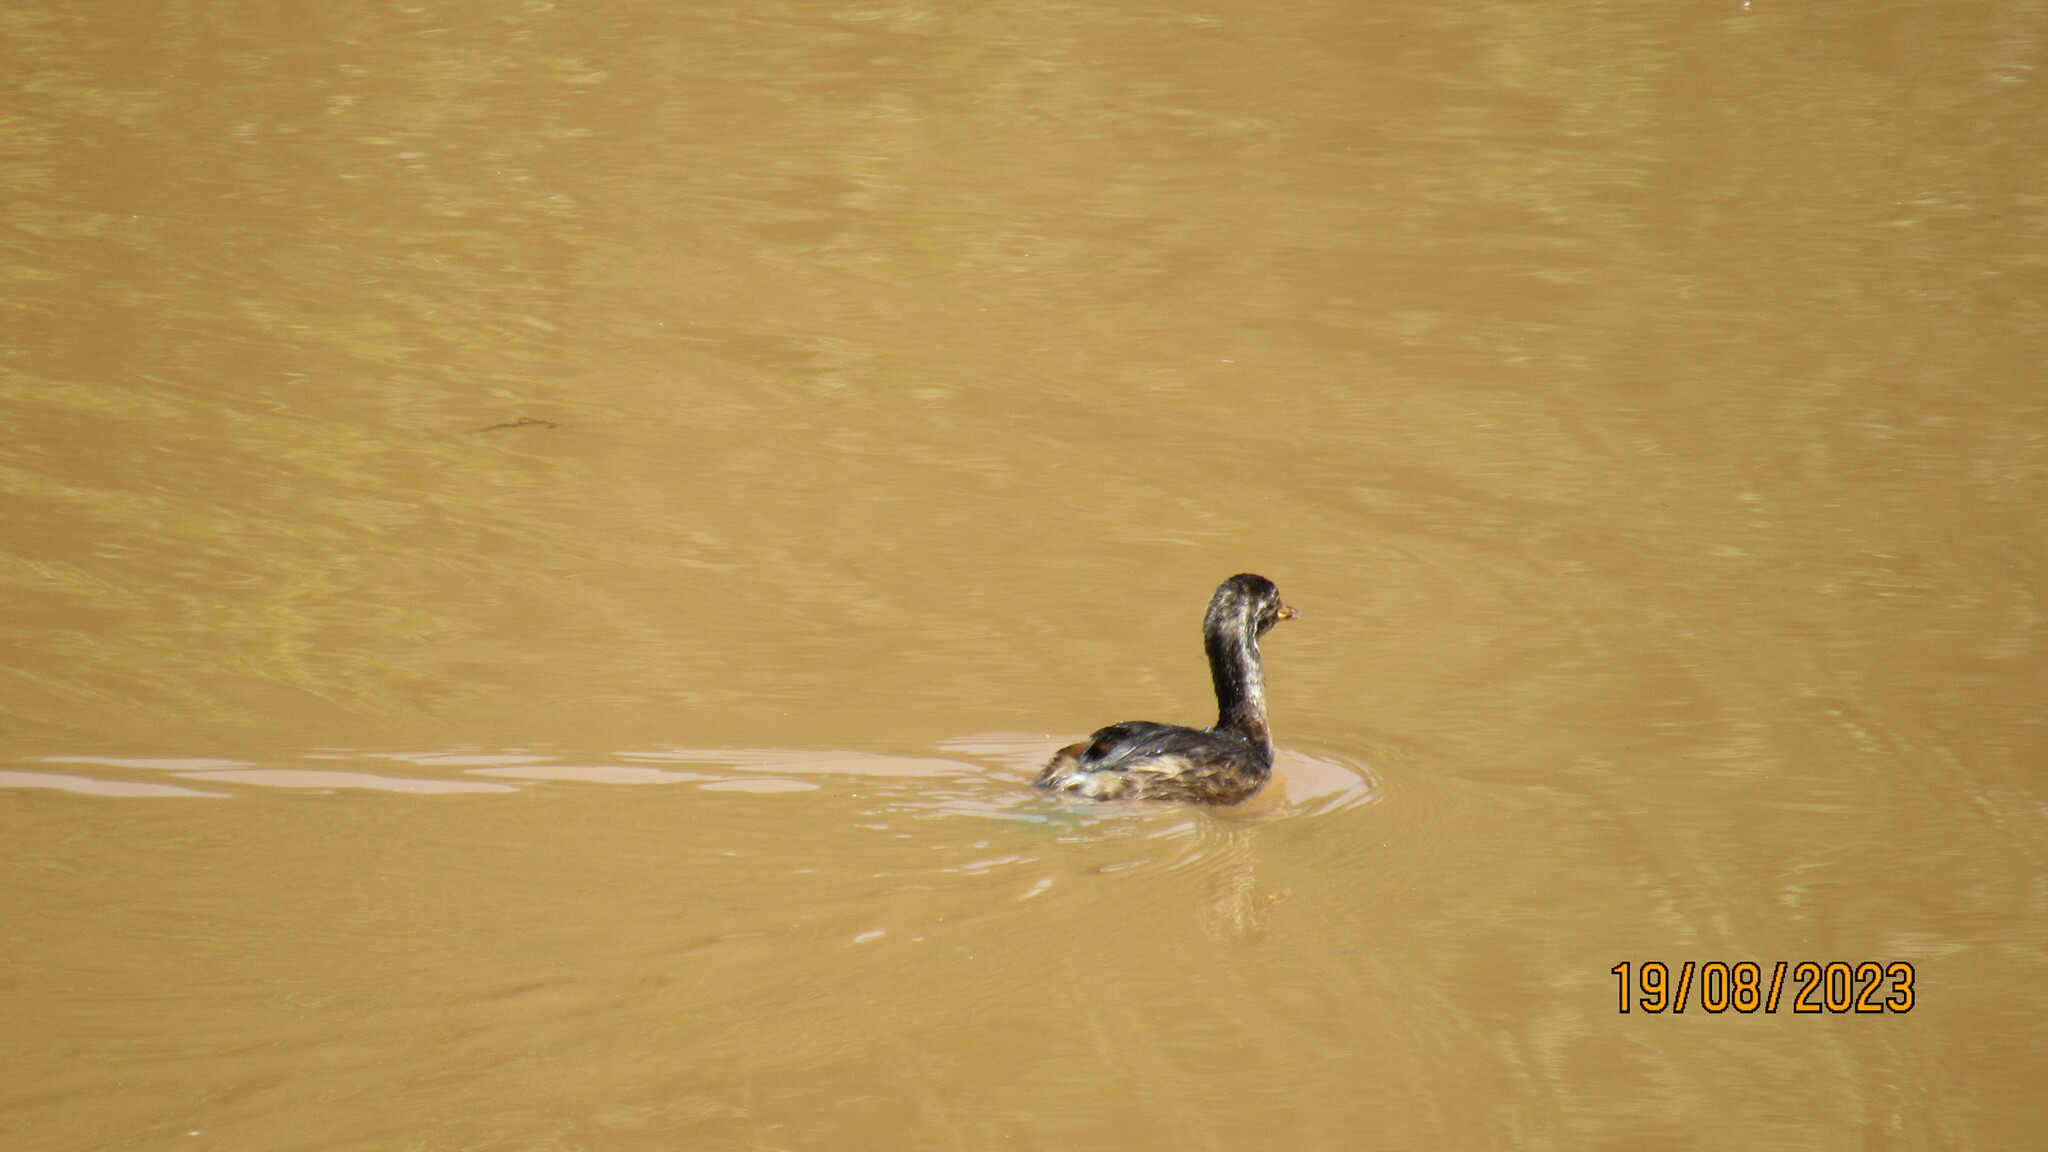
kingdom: Animalia
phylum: Chordata
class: Aves
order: Podicipediformes
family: Podicipedidae
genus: Tachybaptus
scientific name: Tachybaptus ruficollis
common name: Little grebe
